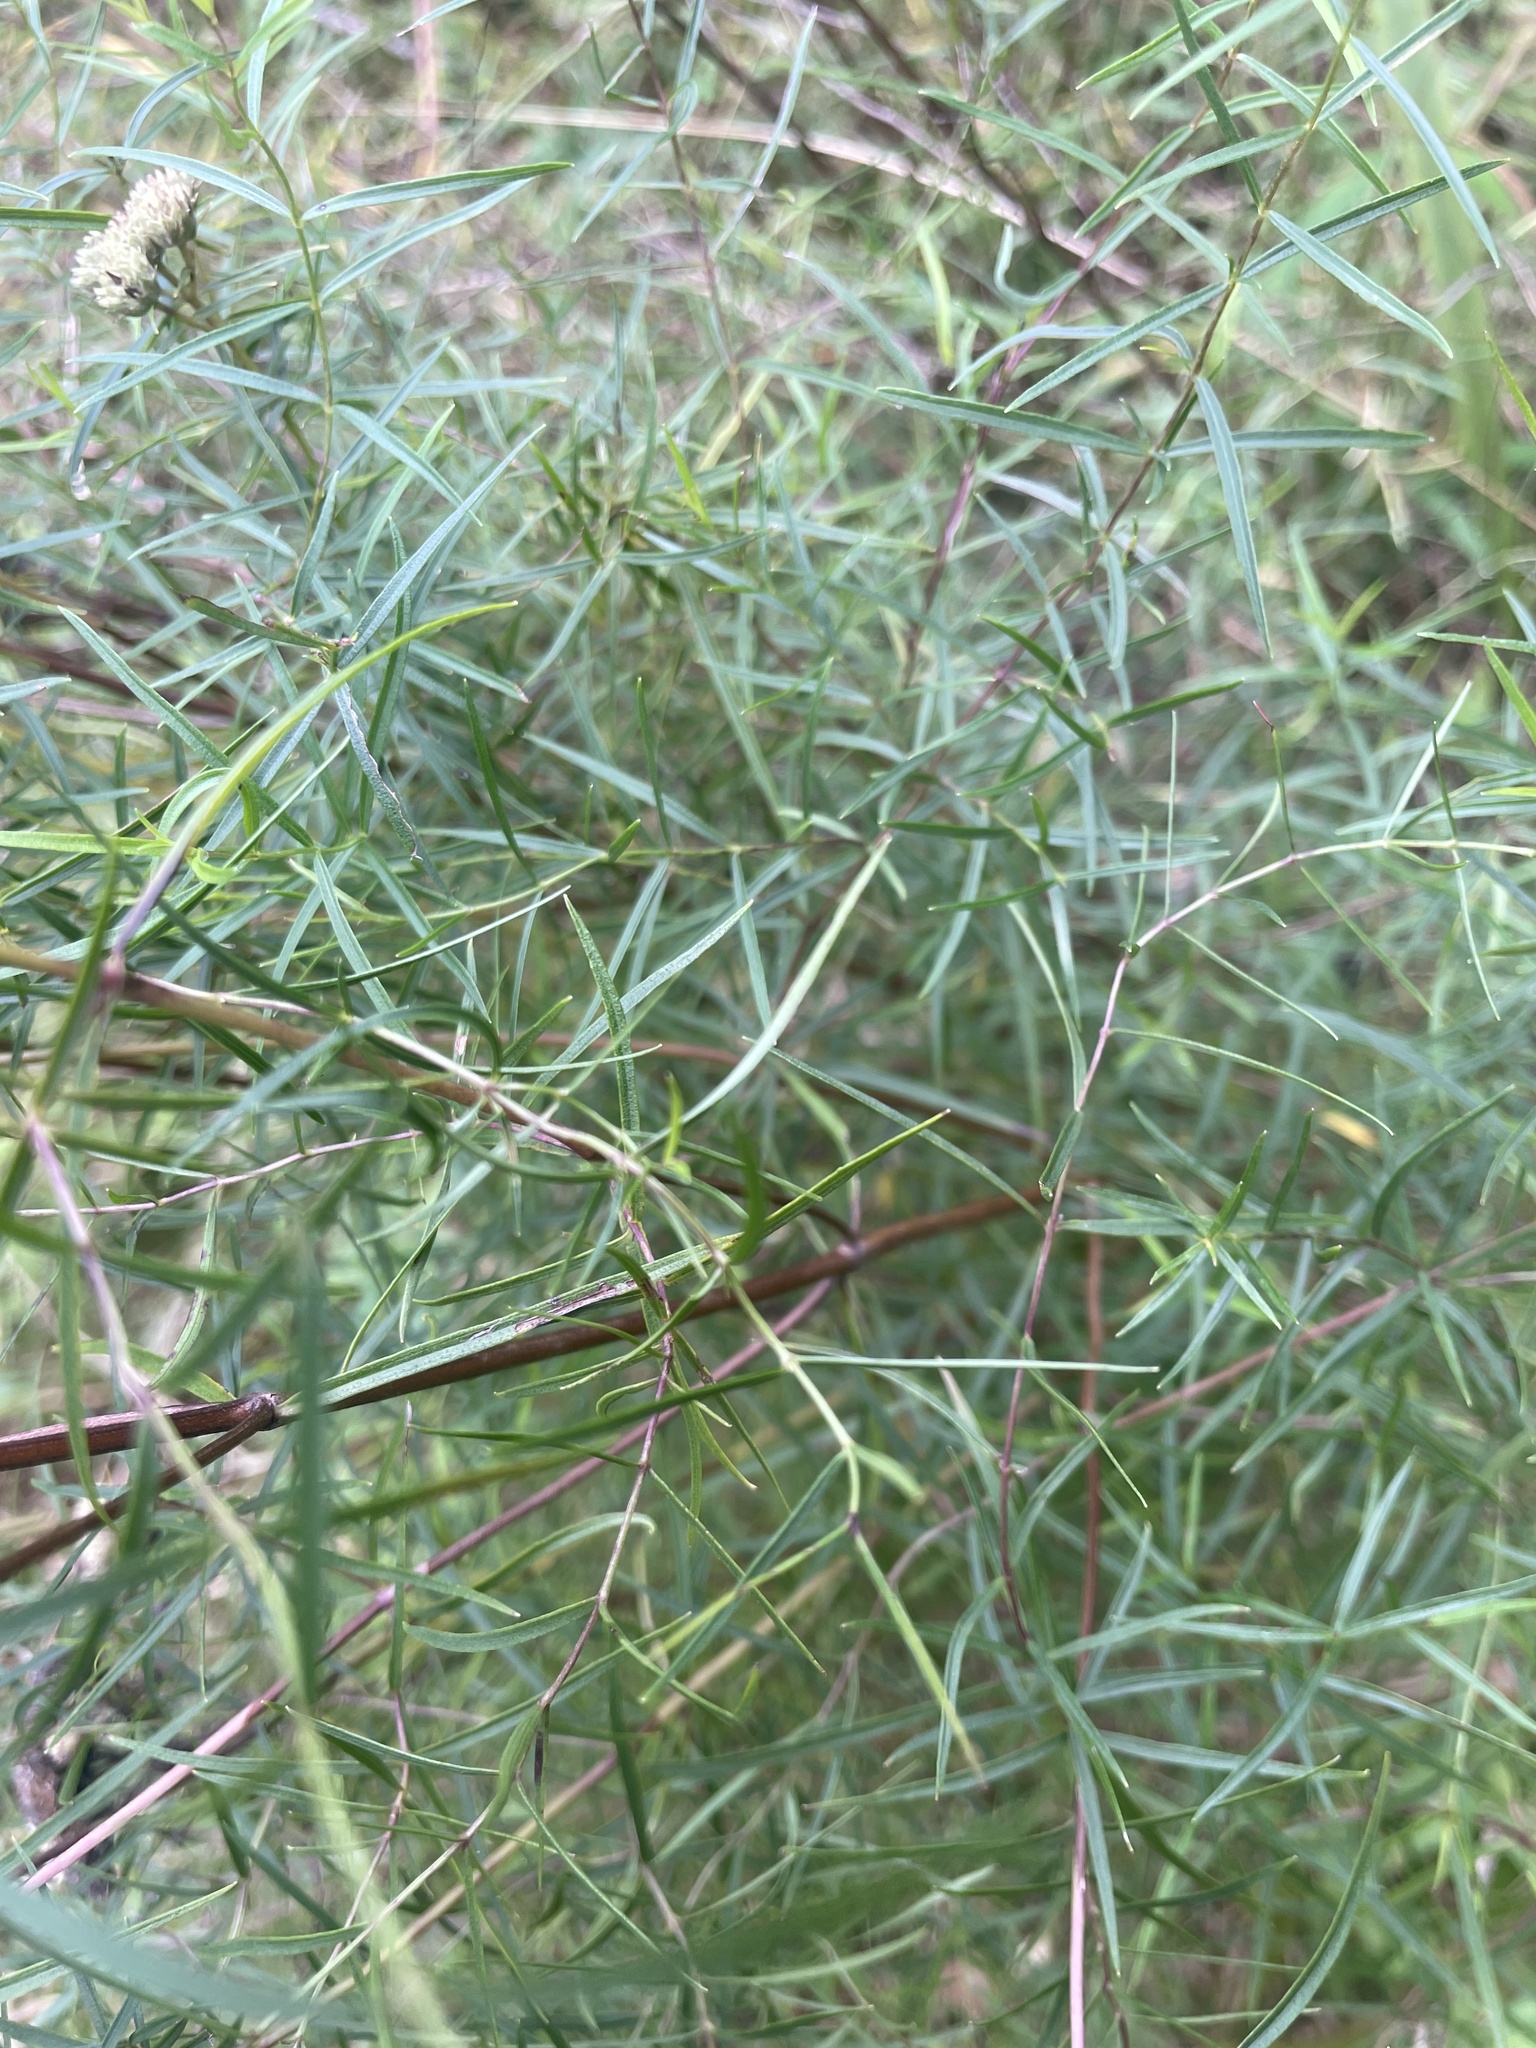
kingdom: Plantae
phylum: Tracheophyta
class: Magnoliopsida
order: Lamiales
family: Lamiaceae
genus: Pycnanthemum
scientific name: Pycnanthemum tenuifolium
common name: Narrow-leaf mountain-mint
